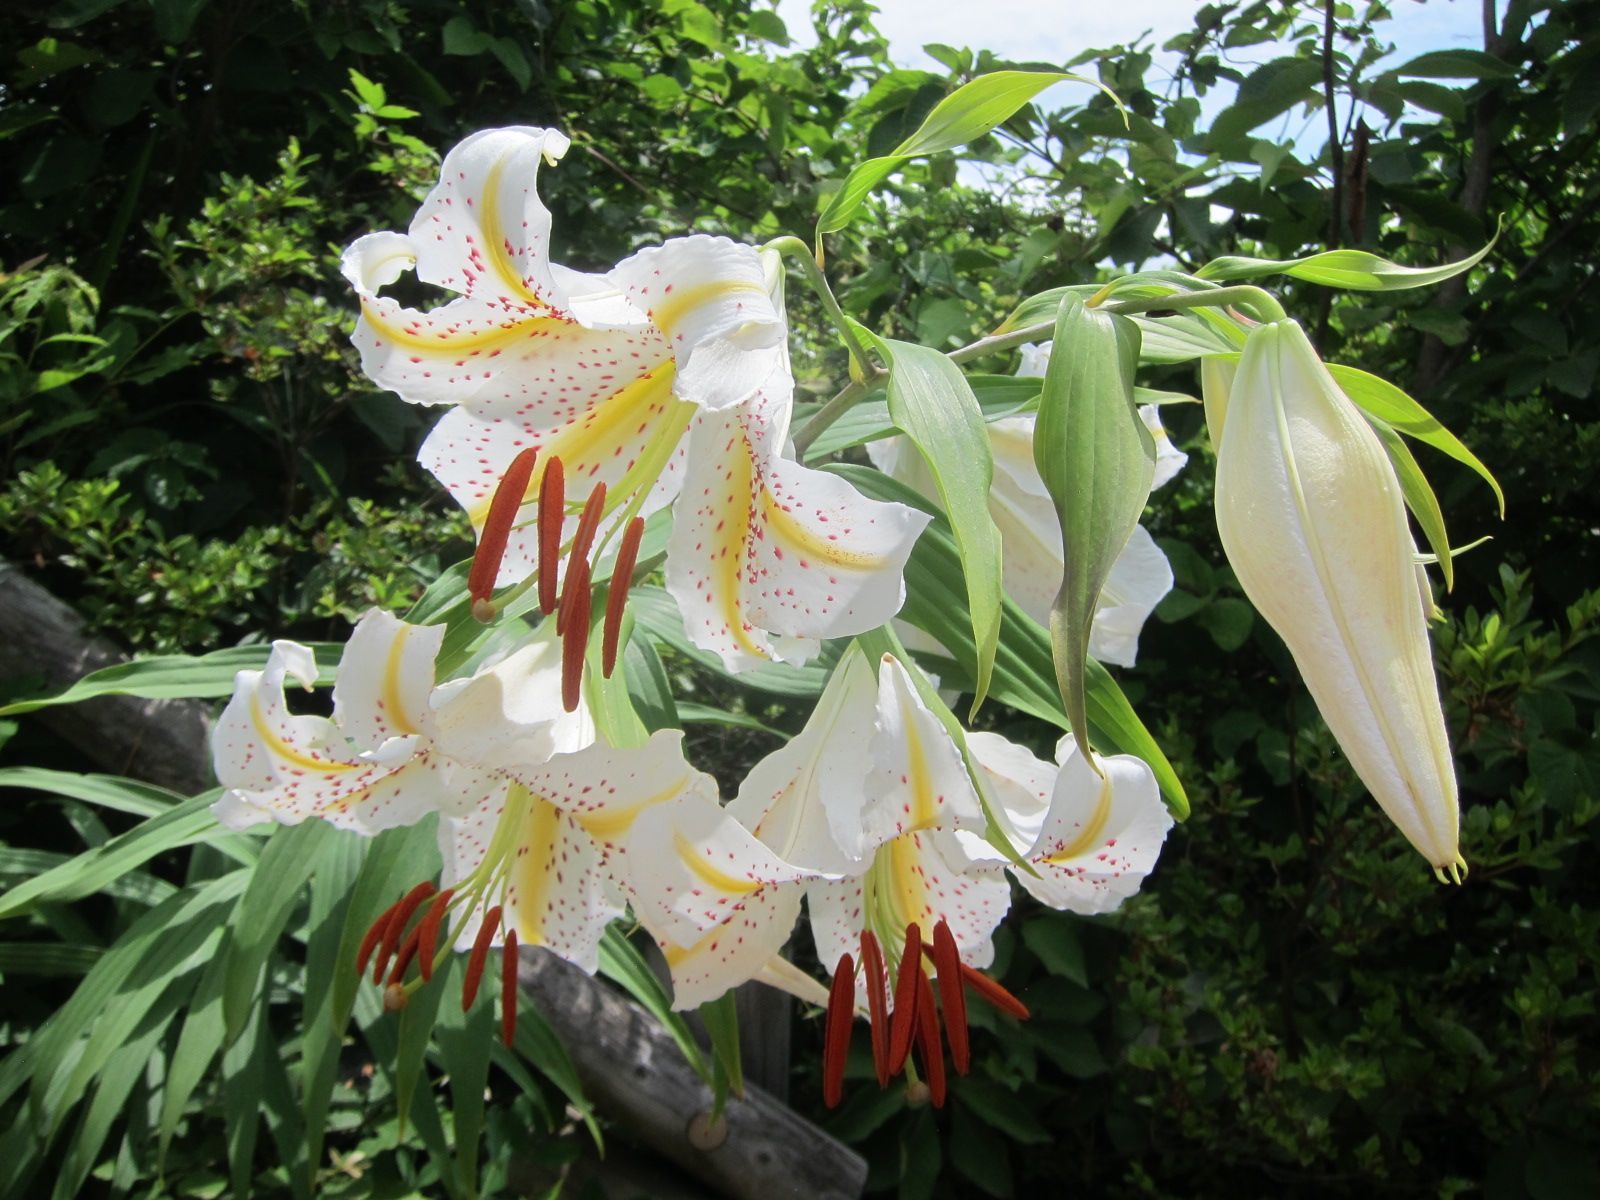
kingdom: Plantae
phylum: Tracheophyta
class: Liliopsida
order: Liliales
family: Liliaceae
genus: Lilium
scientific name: Lilium auratum
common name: Golden-ray lily
